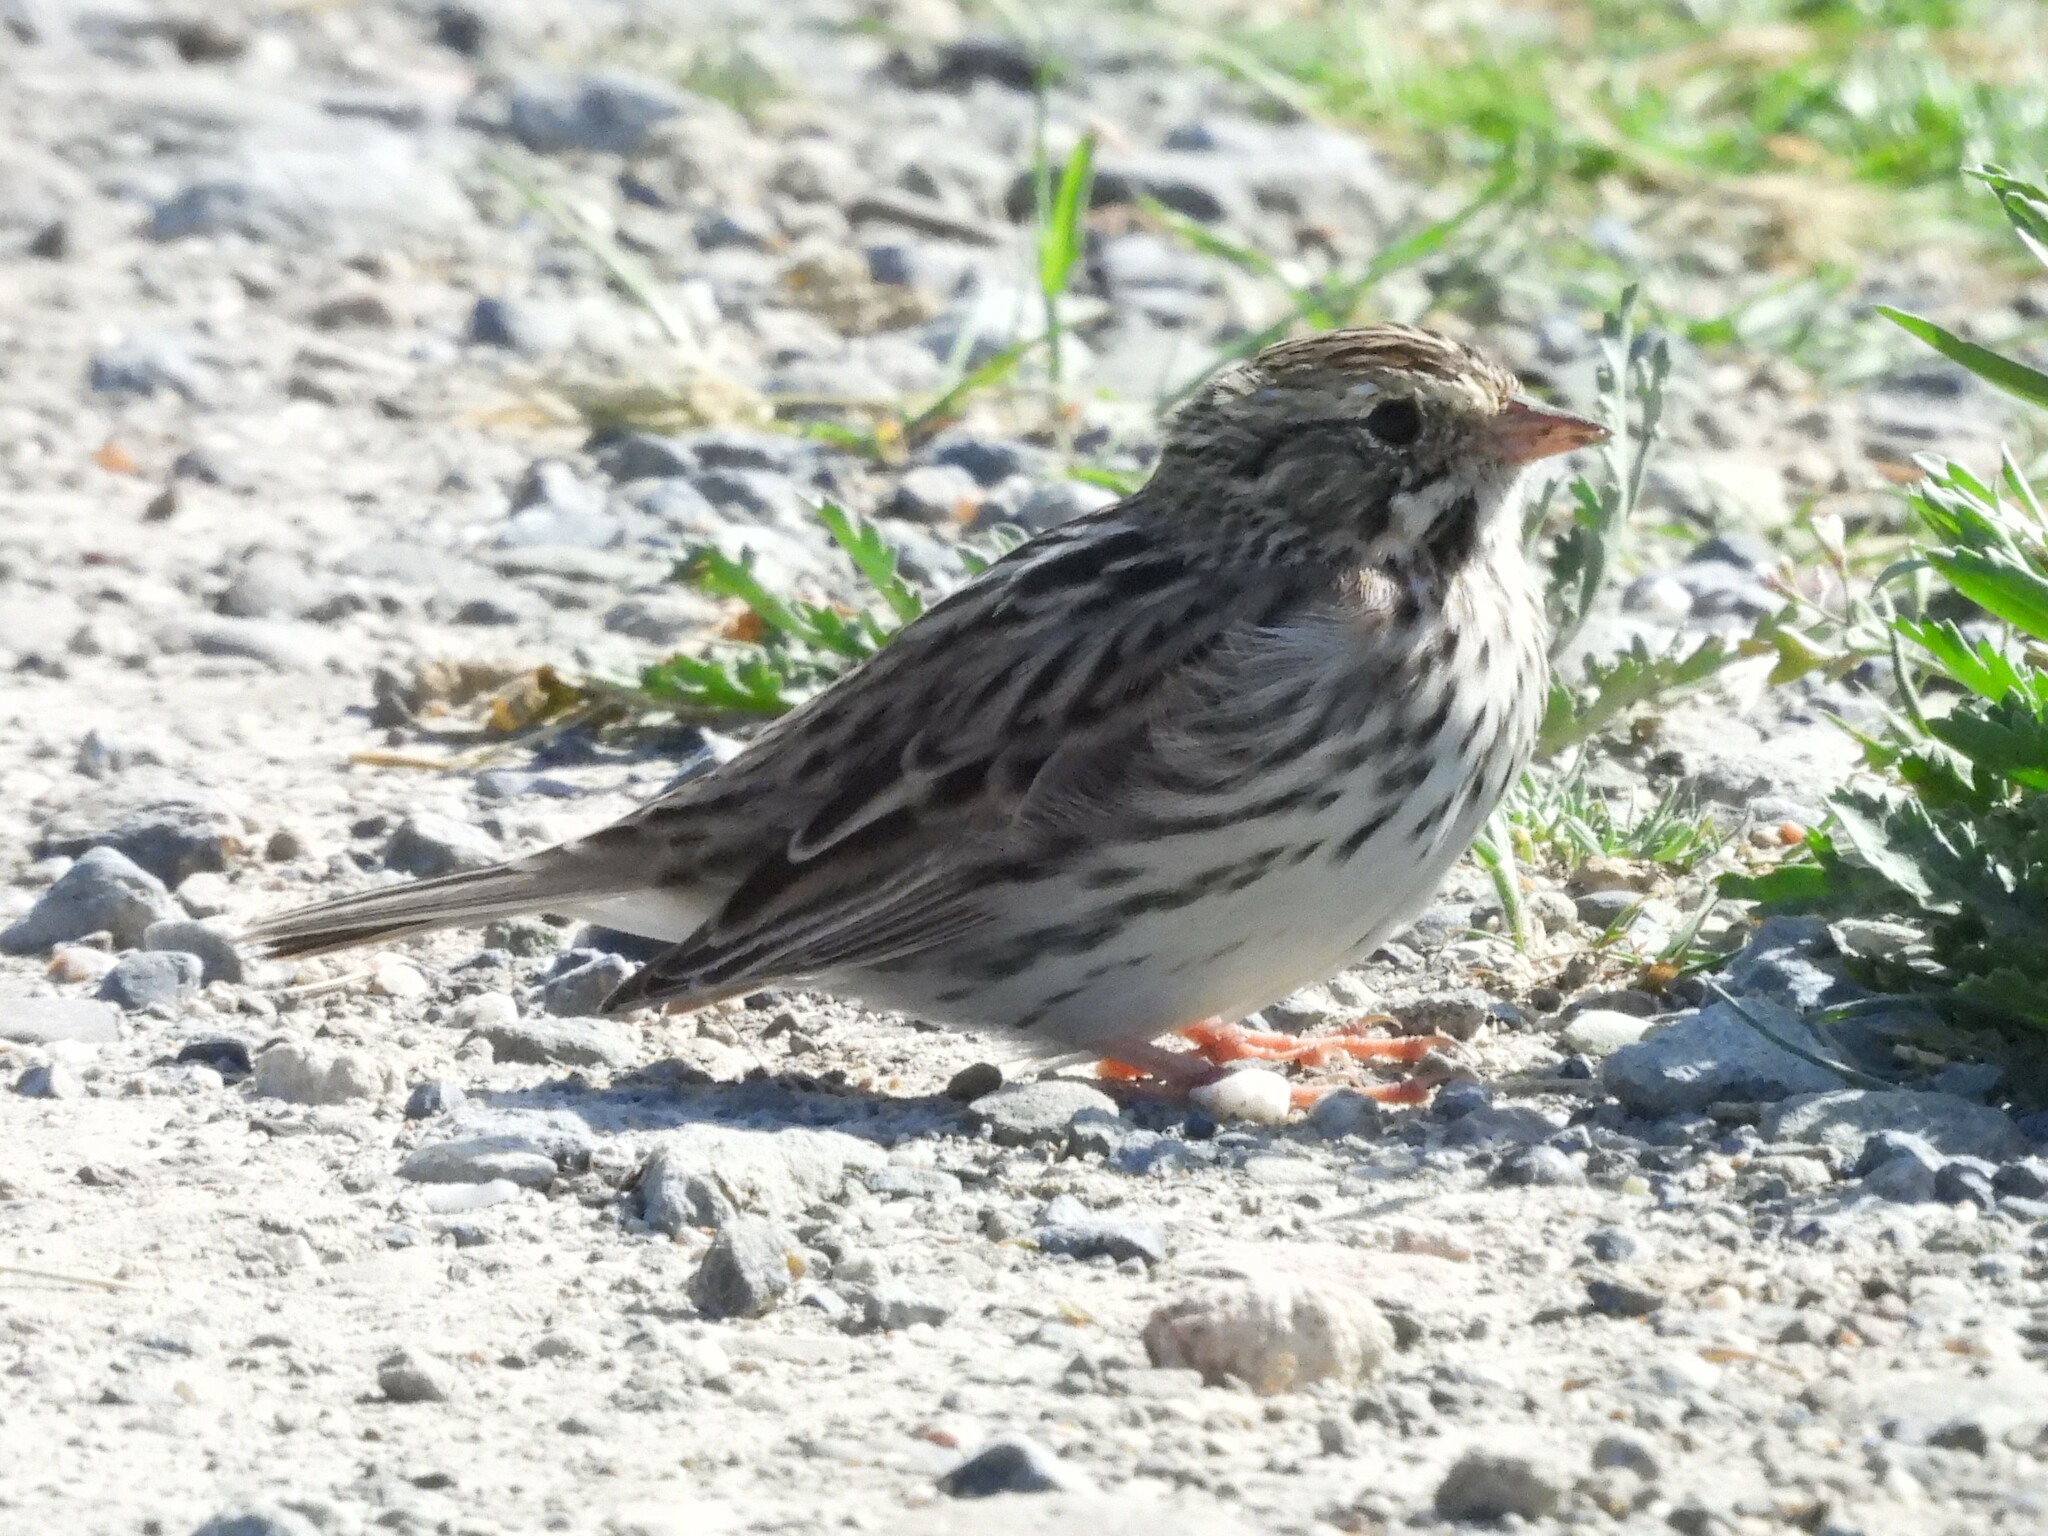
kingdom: Animalia
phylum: Chordata
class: Aves
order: Passeriformes
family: Passerellidae
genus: Passerculus
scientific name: Passerculus sandwichensis
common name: Savannah sparrow
